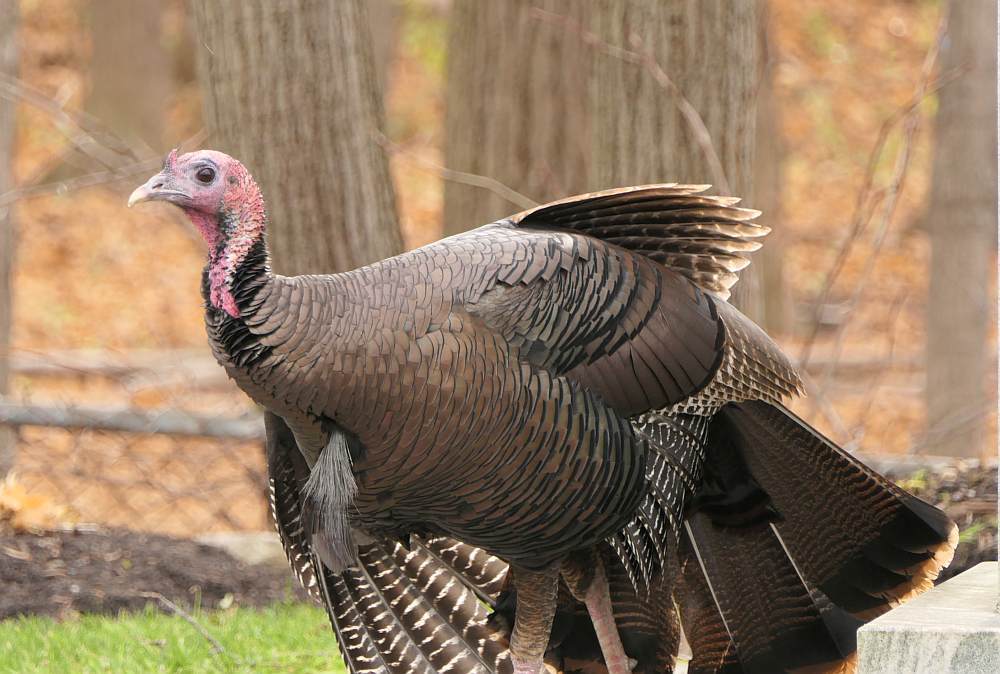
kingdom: Animalia
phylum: Chordata
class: Aves
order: Galliformes
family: Phasianidae
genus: Meleagris
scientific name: Meleagris gallopavo
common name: Wild turkey
